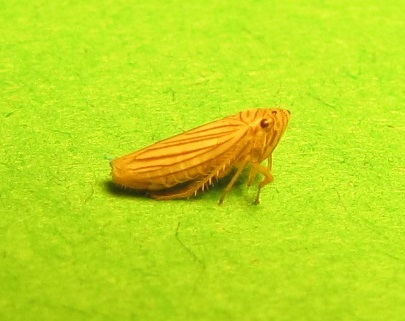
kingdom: Animalia
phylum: Arthropoda
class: Insecta
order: Hemiptera
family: Cicadellidae
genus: Provancherana
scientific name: Provancherana tripunctata
